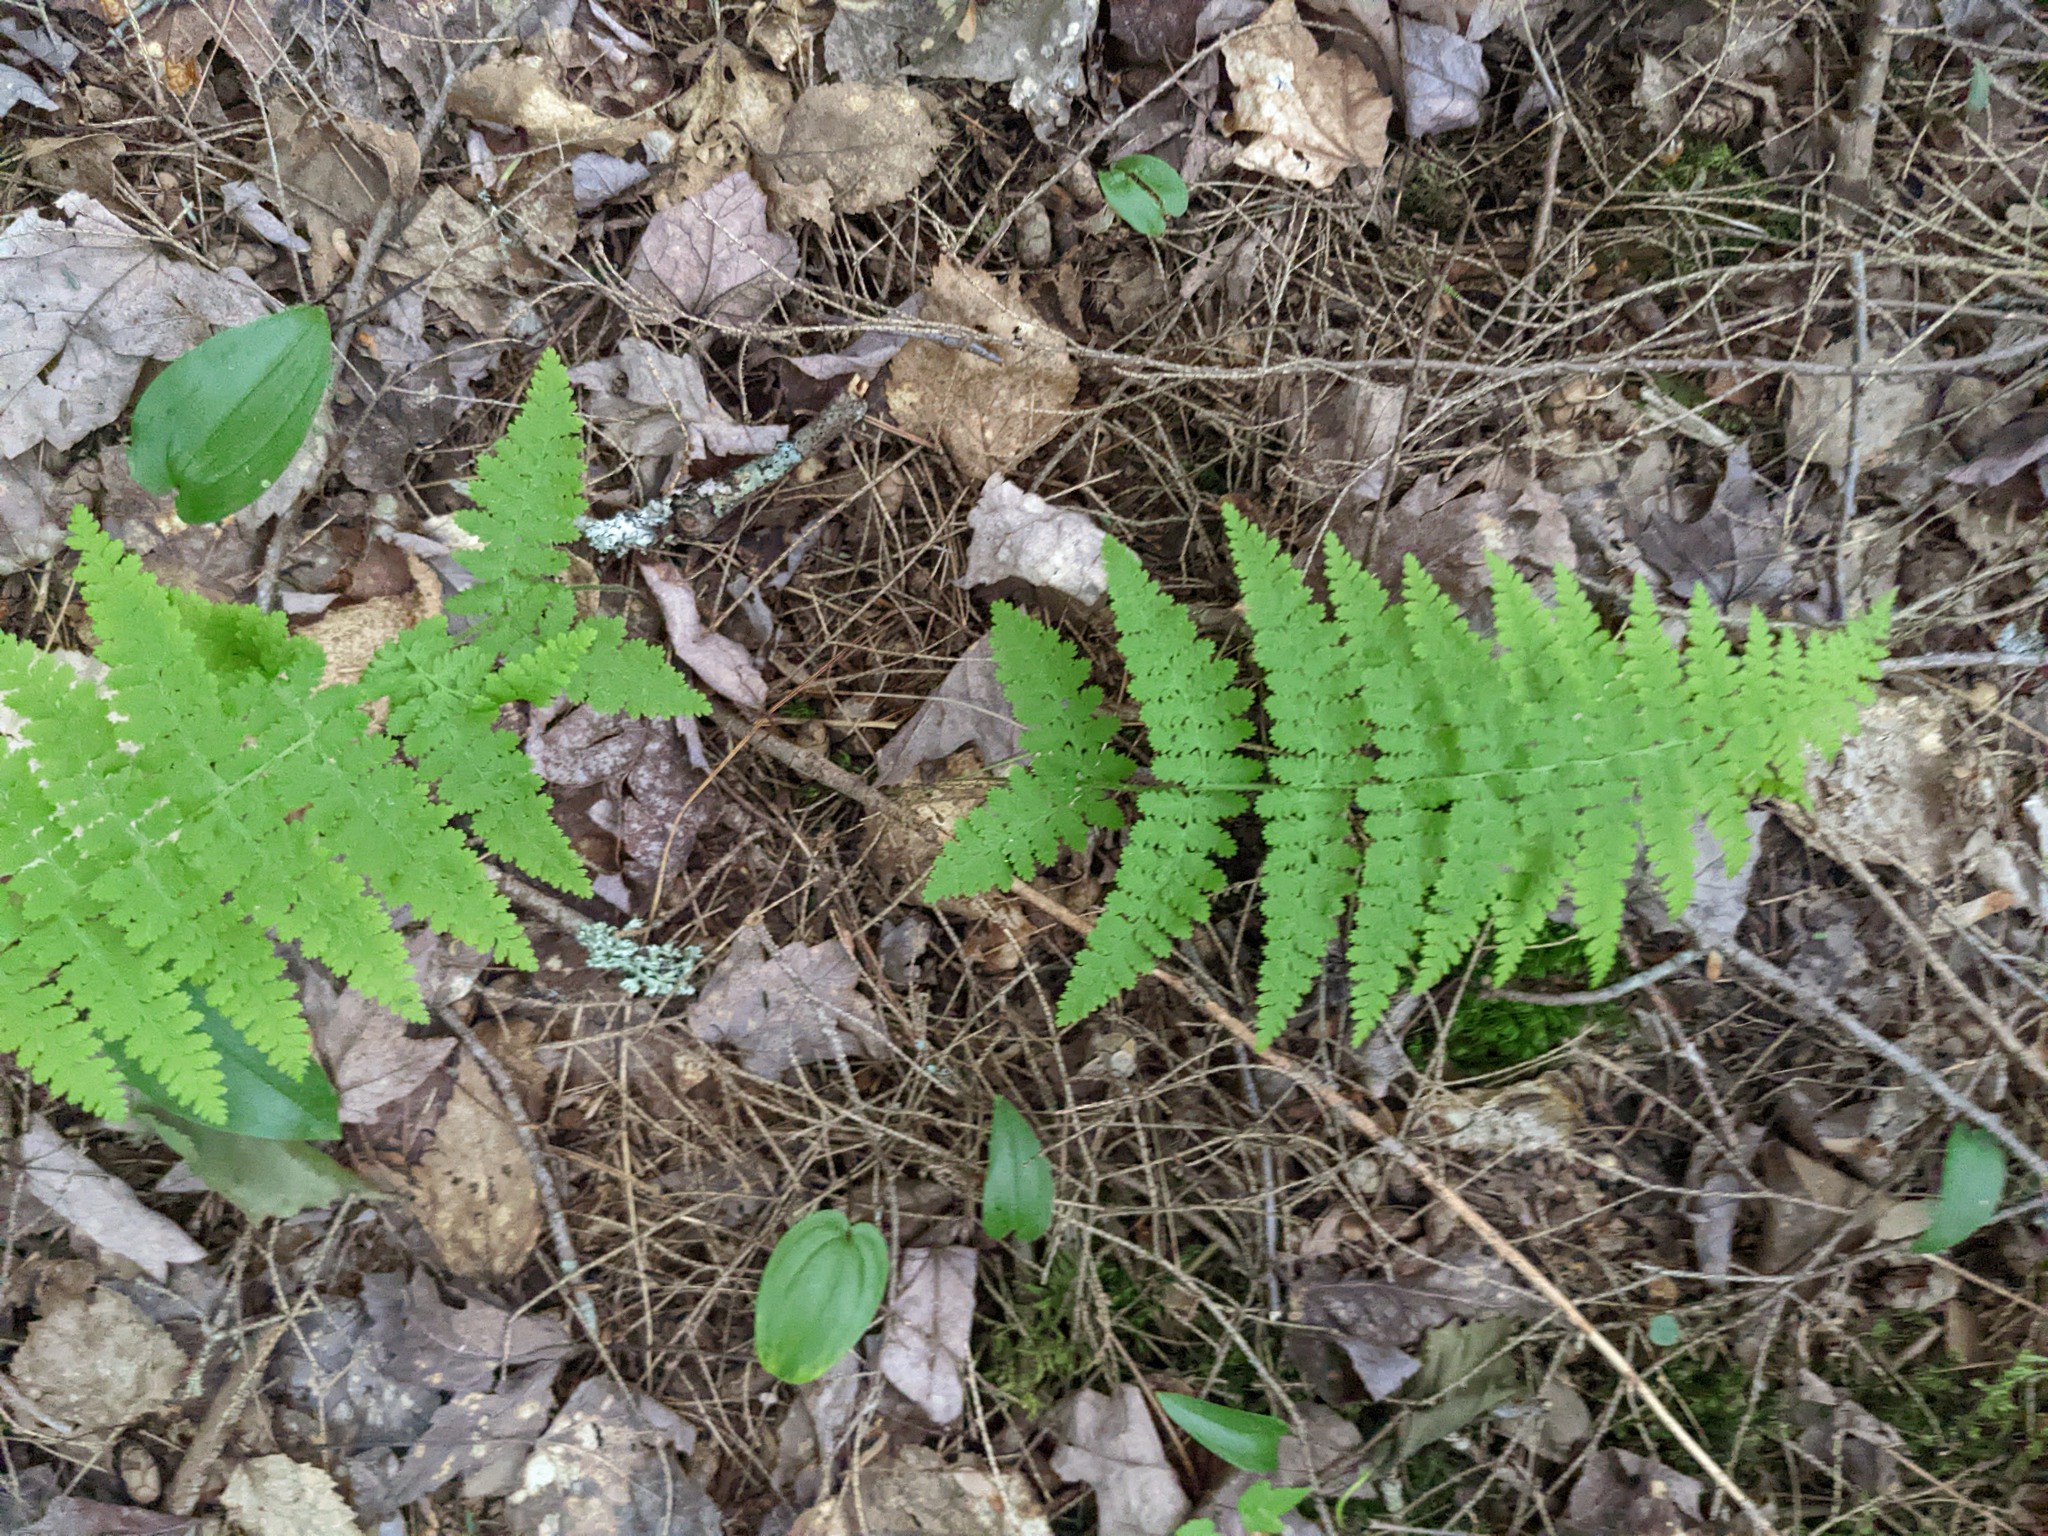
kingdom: Plantae
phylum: Tracheophyta
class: Polypodiopsida
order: Polypodiales
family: Dennstaedtiaceae
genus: Sitobolium
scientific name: Sitobolium punctilobum
